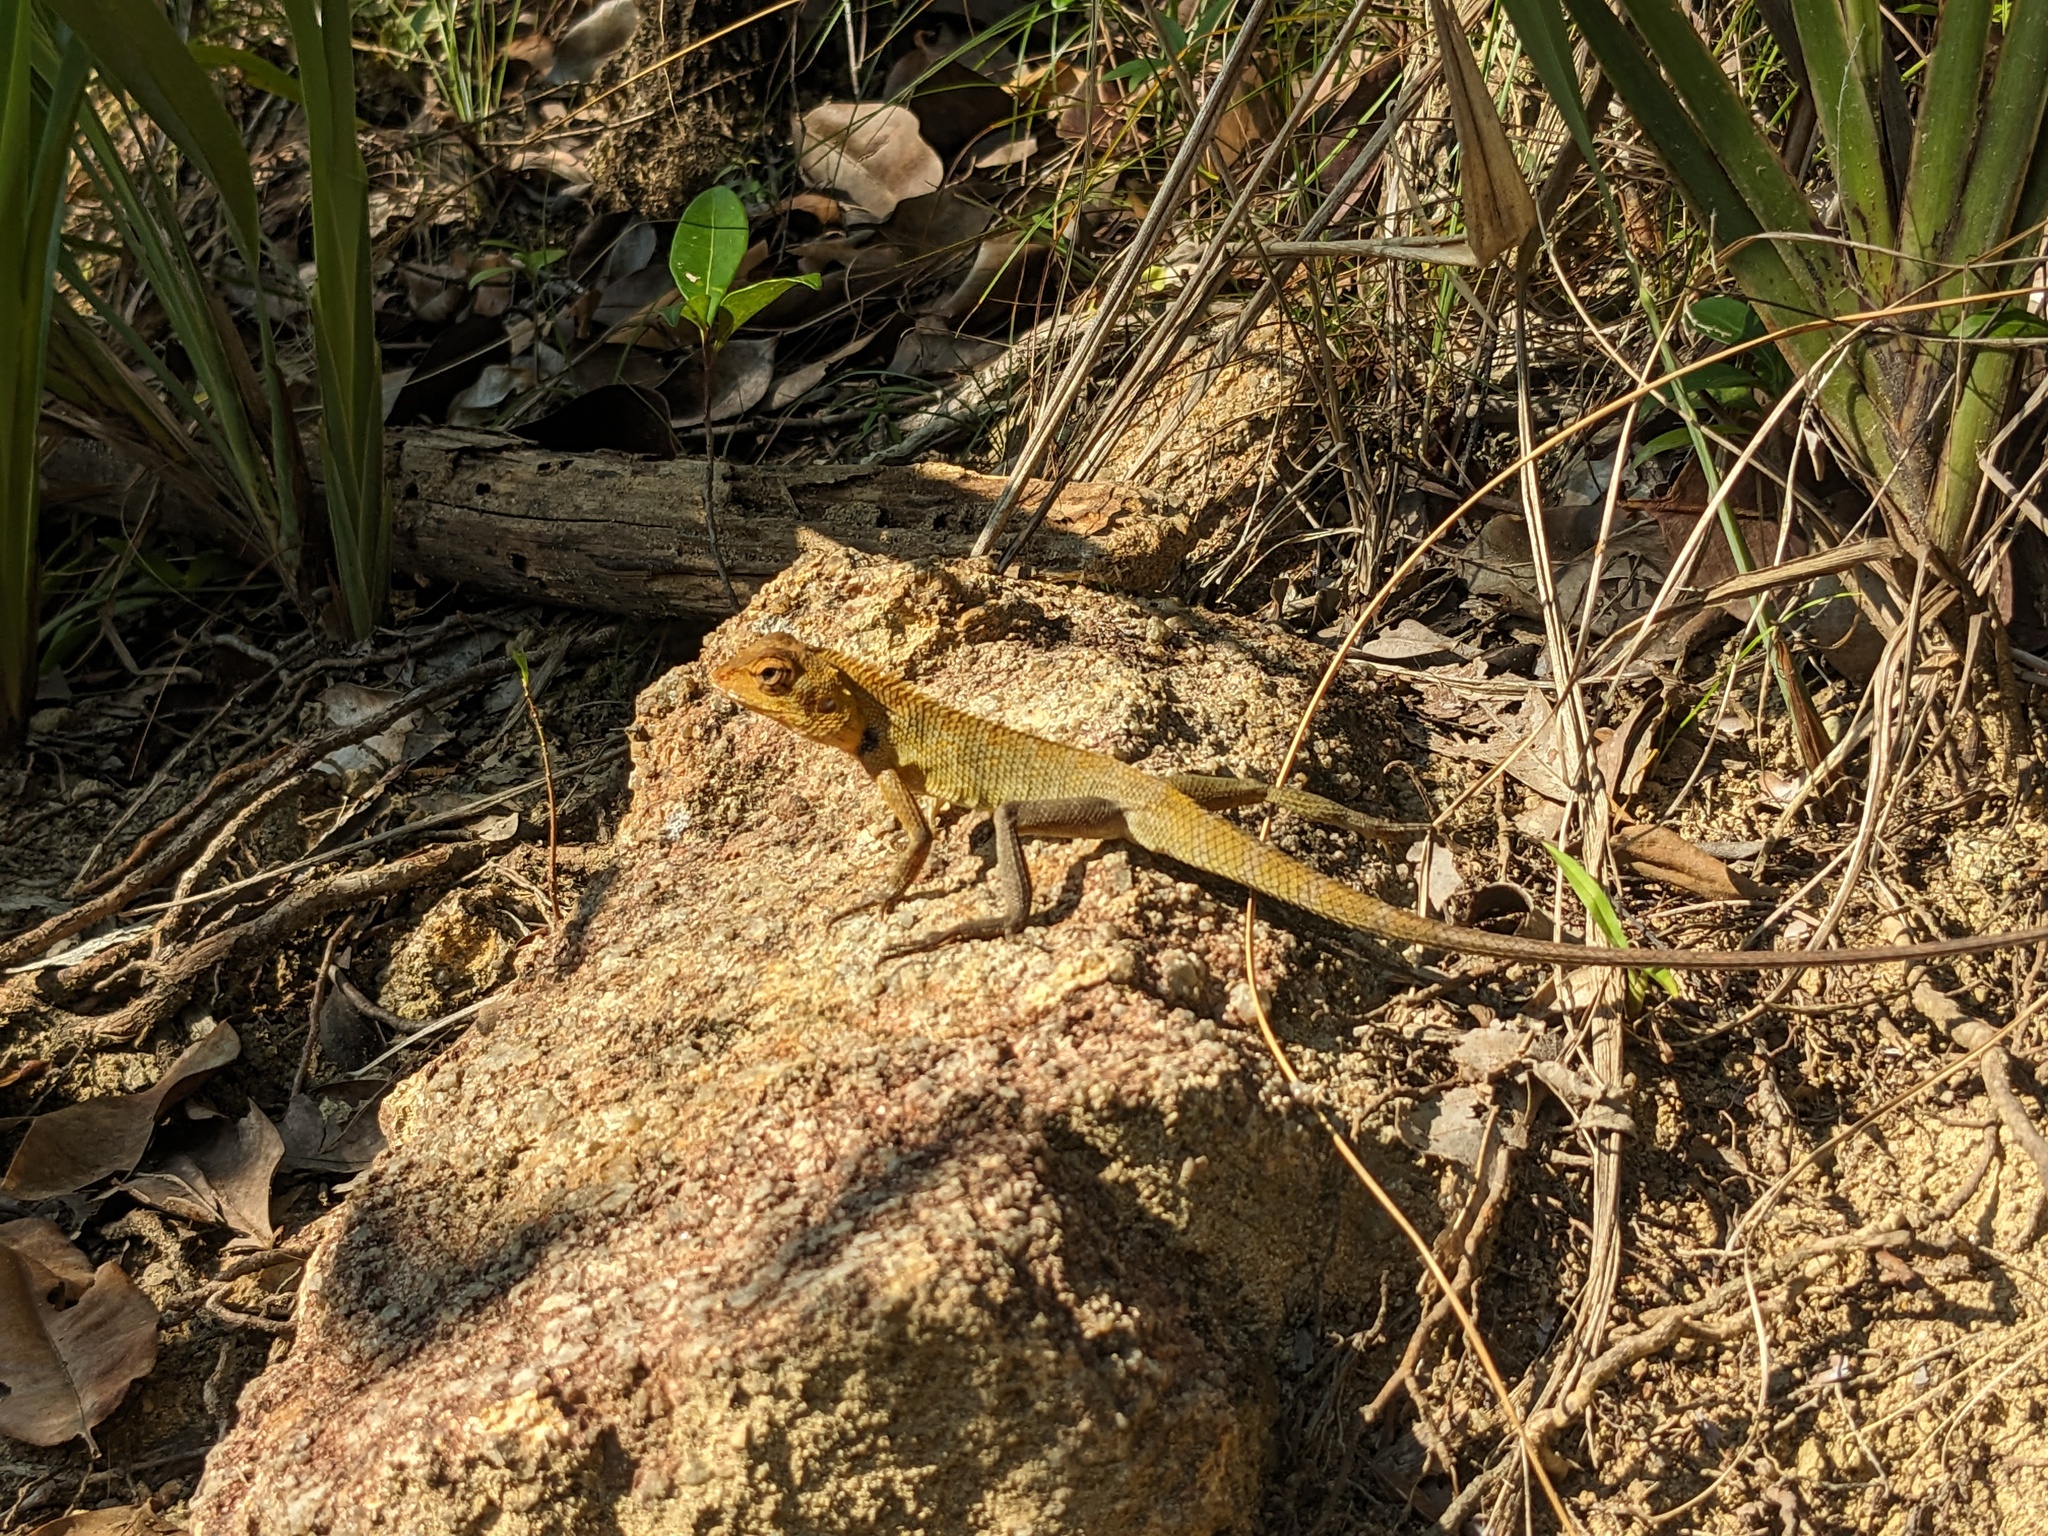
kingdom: Animalia
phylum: Chordata
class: Squamata
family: Agamidae
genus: Calotes
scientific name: Calotes versicolor
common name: Oriental garden lizard
